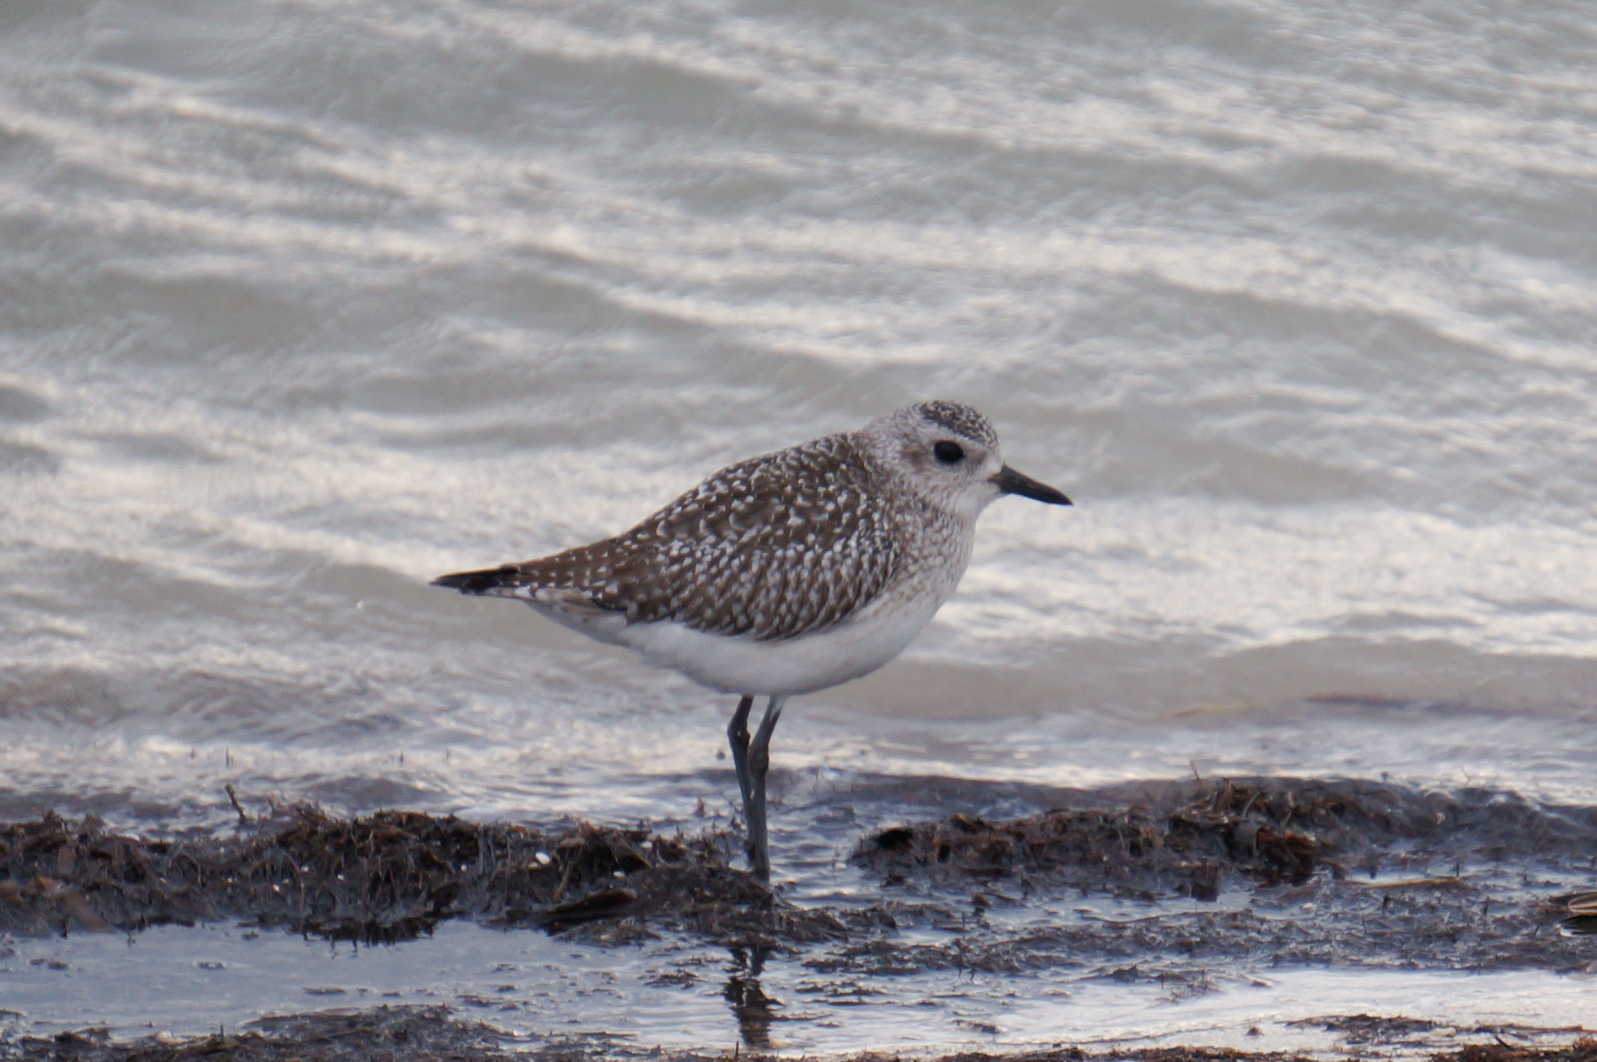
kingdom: Animalia
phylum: Chordata
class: Aves
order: Charadriiformes
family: Charadriidae
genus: Pluvialis
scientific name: Pluvialis squatarola
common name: Grey plover
